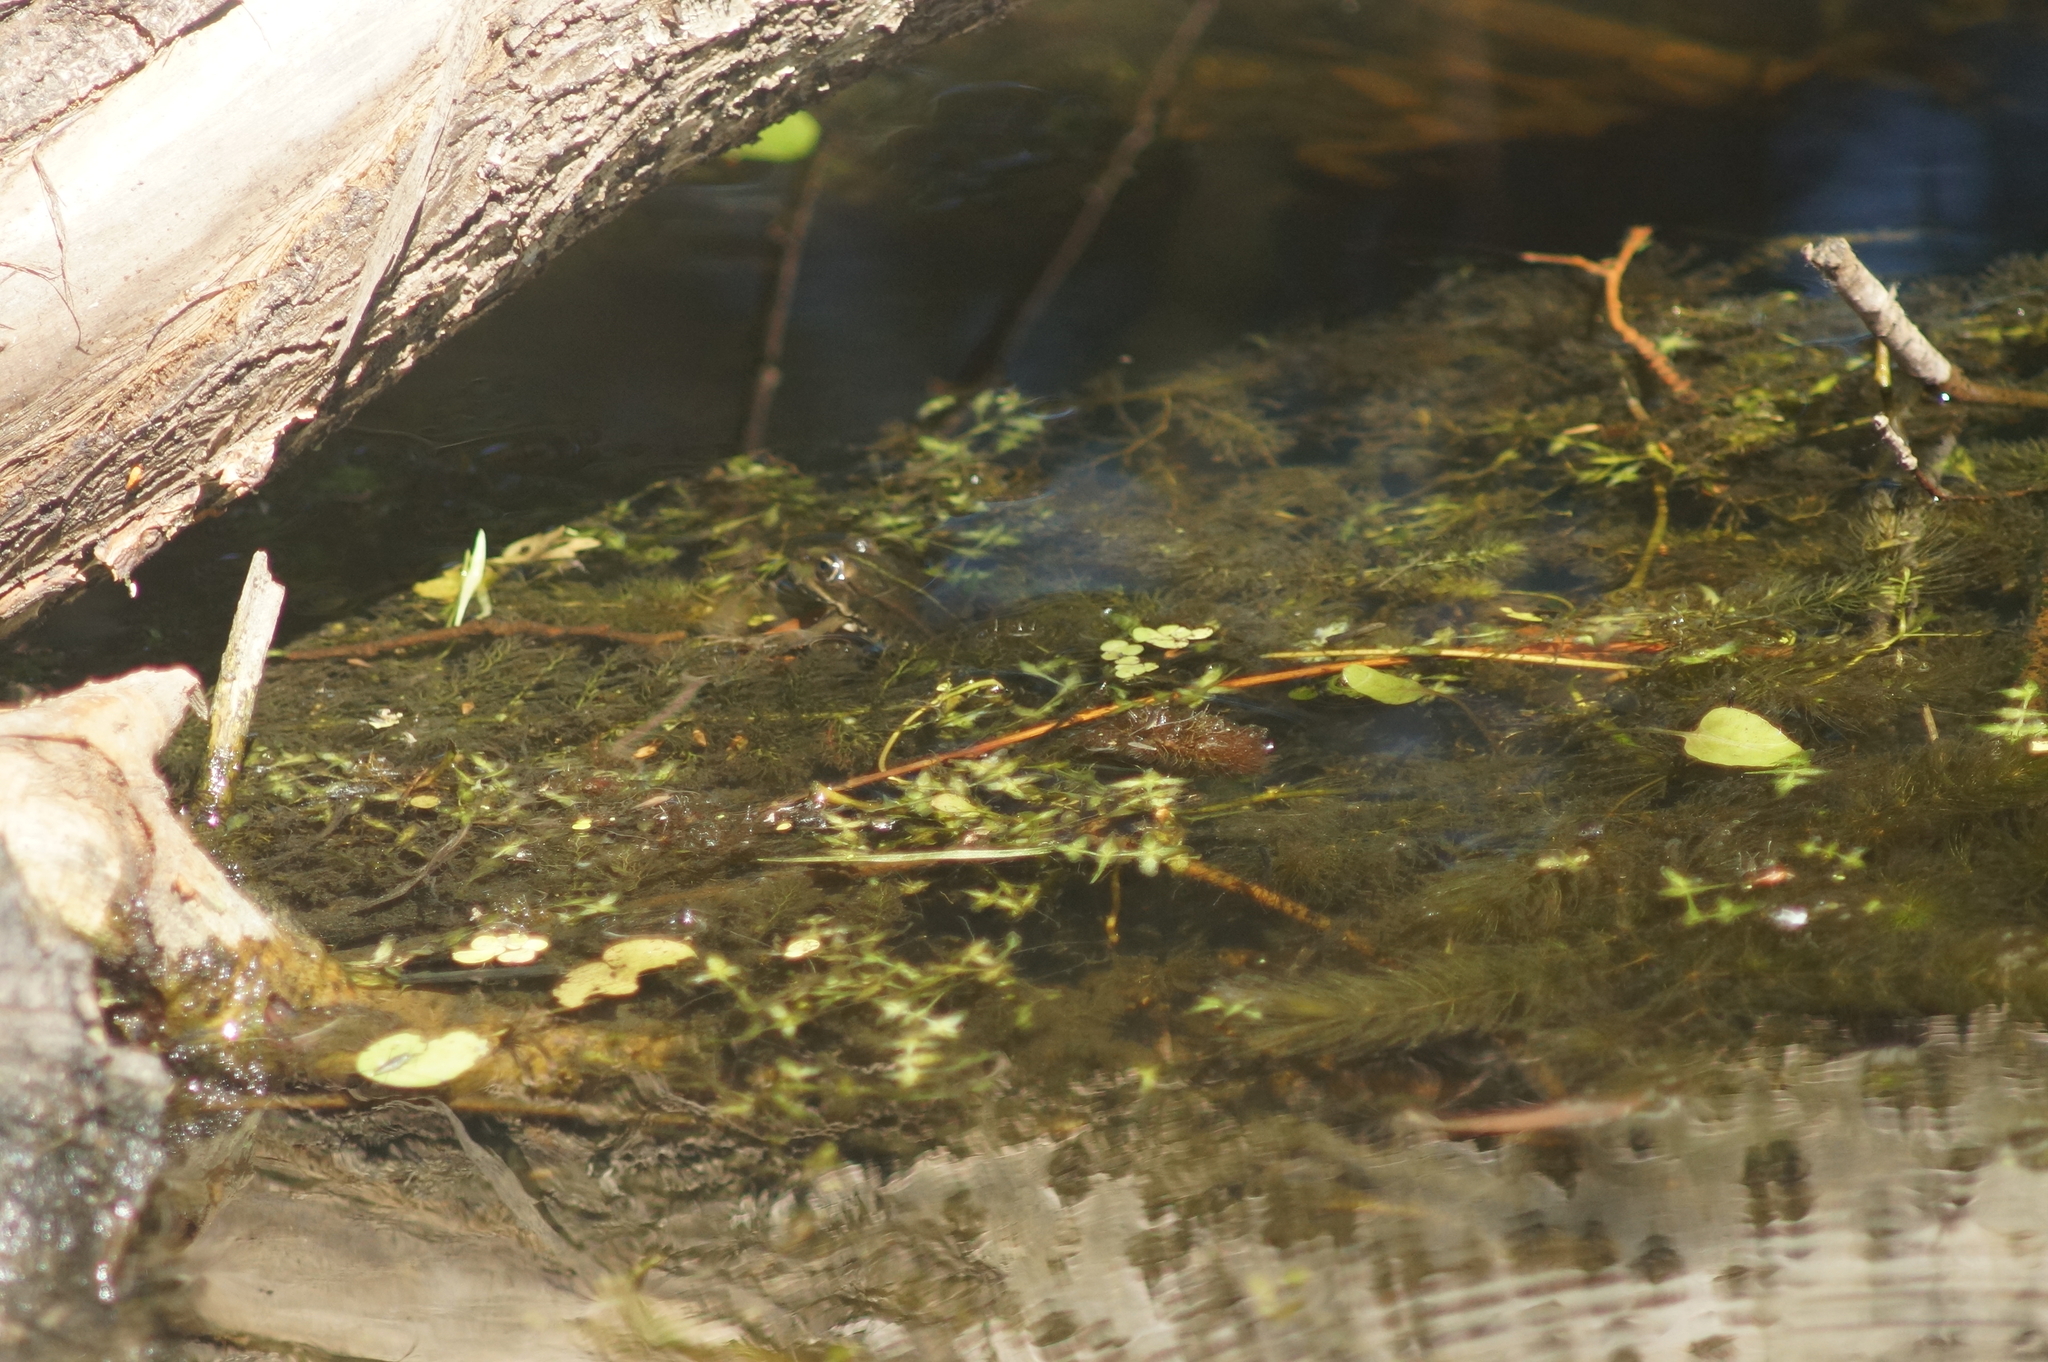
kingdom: Plantae
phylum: Tracheophyta
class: Liliopsida
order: Alismatales
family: Araceae
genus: Lemna
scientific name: Lemna trisulca
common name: Ivy-leaved duckweed
